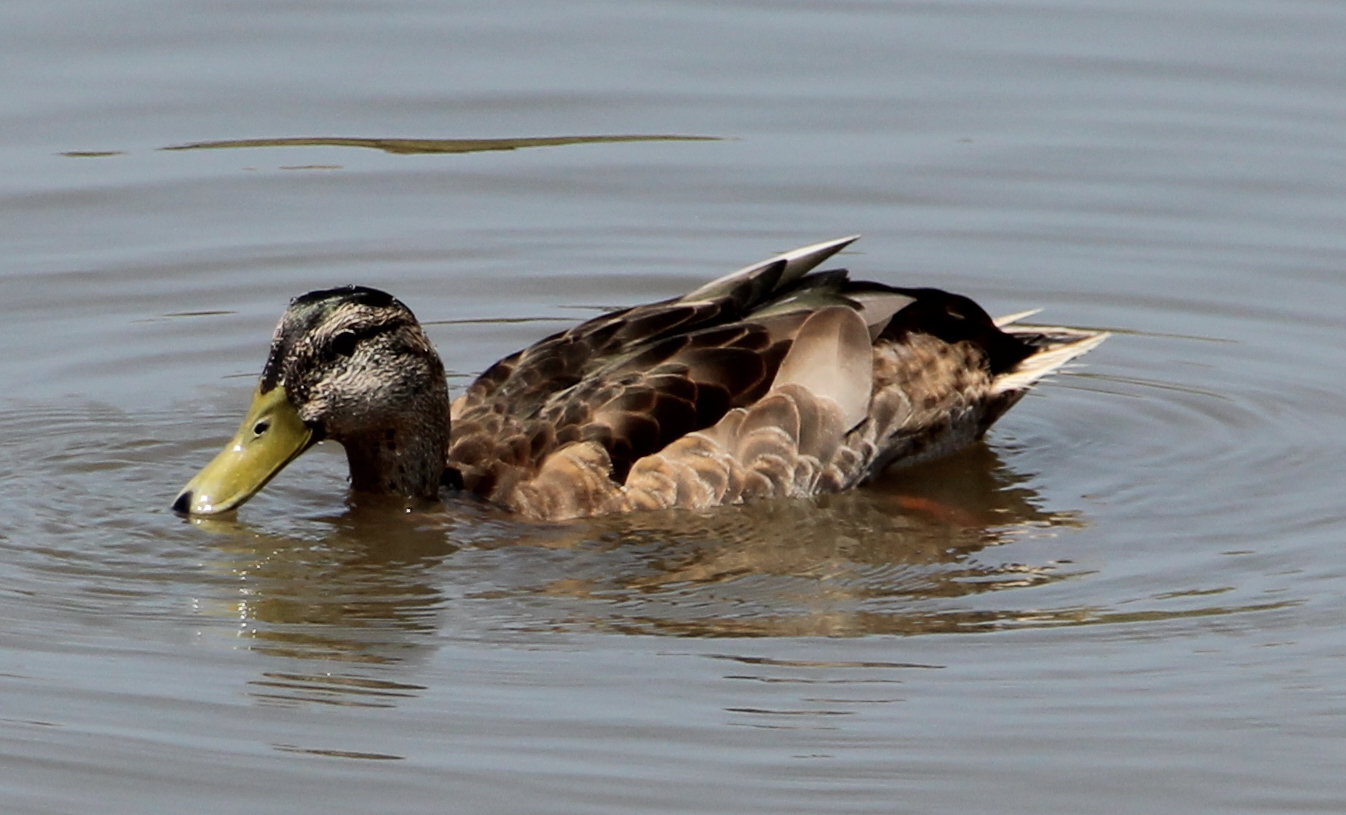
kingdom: Animalia
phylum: Chordata
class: Aves
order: Anseriformes
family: Anatidae
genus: Anas
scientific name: Anas platyrhynchos
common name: Mallard
